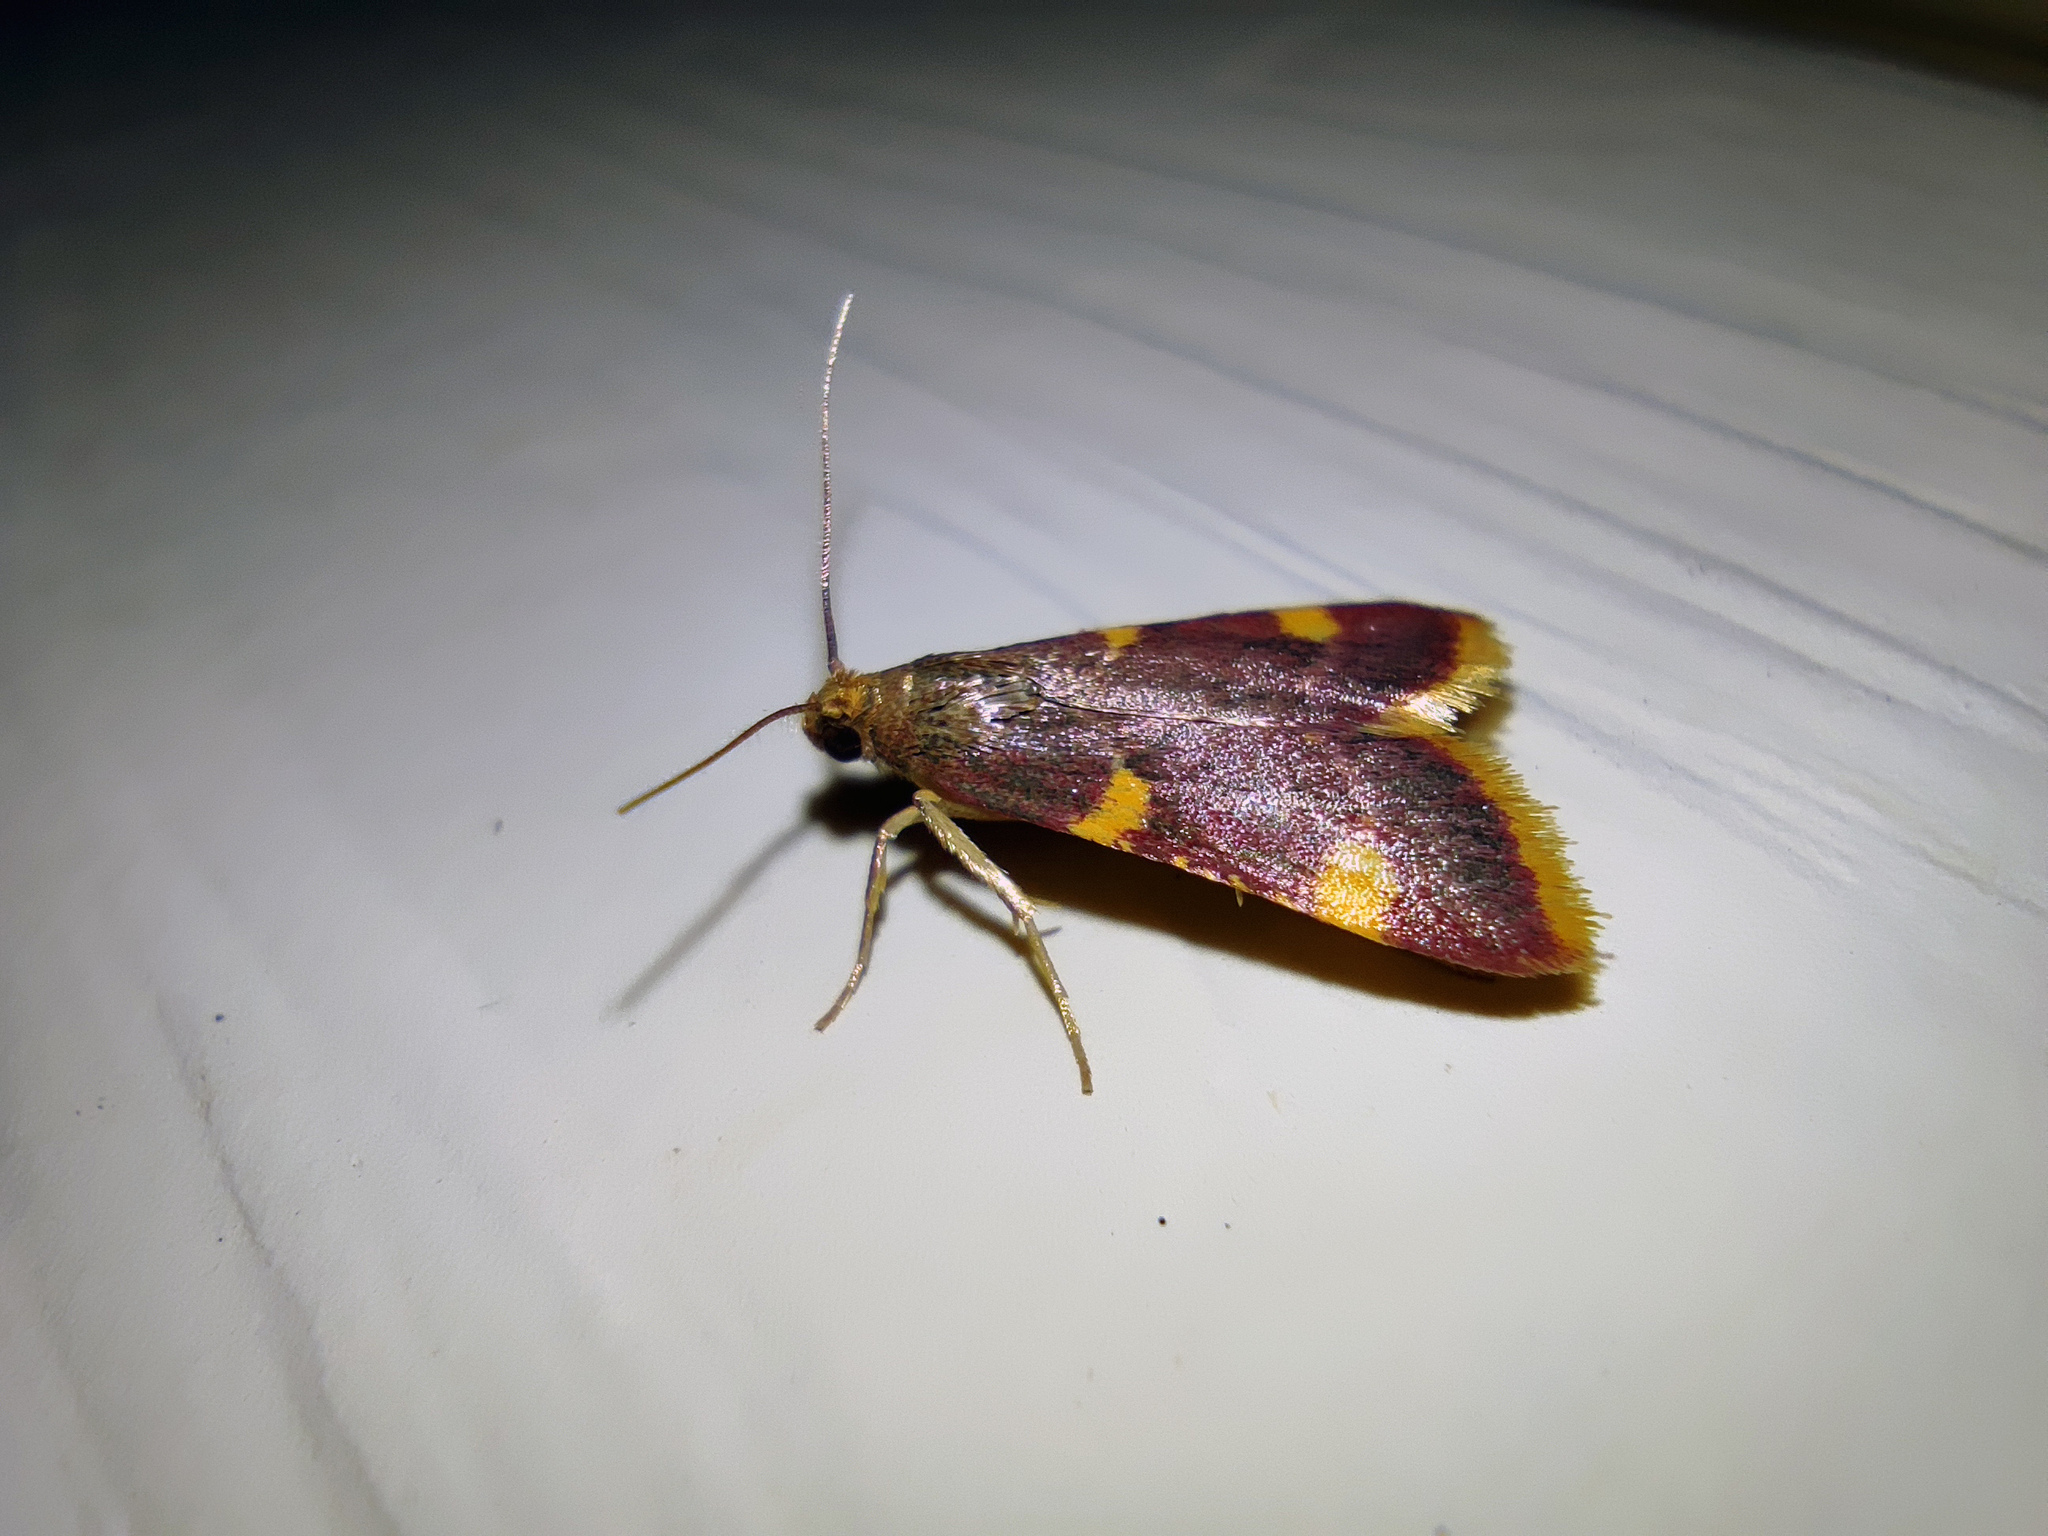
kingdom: Animalia
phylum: Arthropoda
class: Insecta
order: Lepidoptera
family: Pyralidae
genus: Hypsopygia
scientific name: Hypsopygia costalis
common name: Gold triangle
